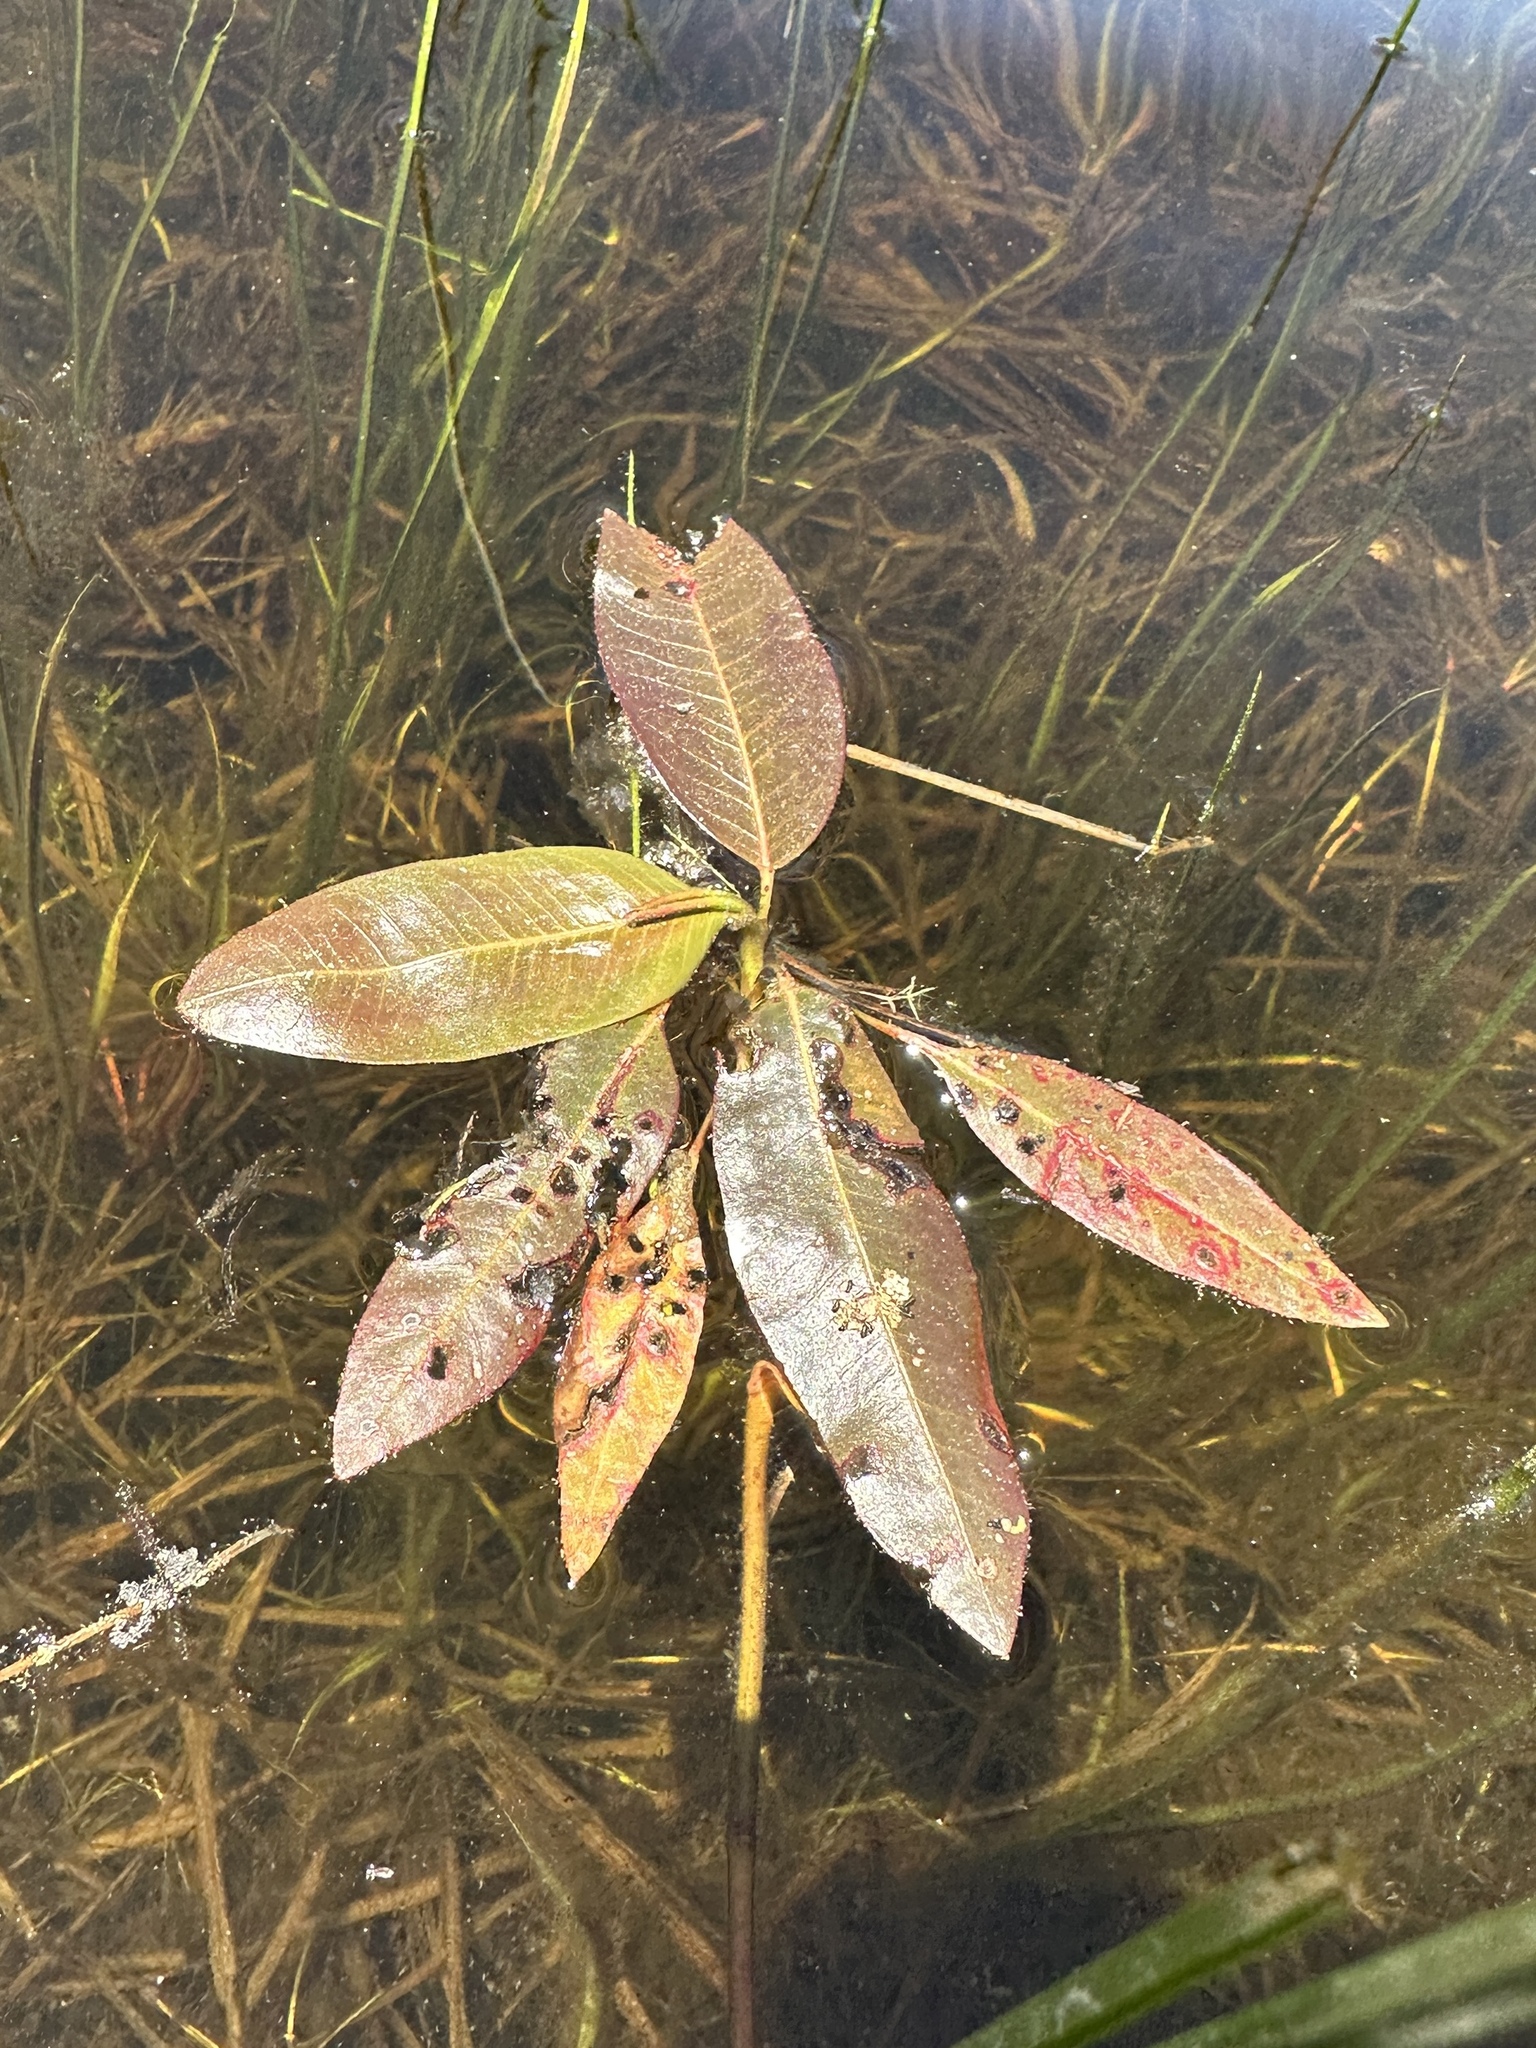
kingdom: Plantae
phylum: Tracheophyta
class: Magnoliopsida
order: Caryophyllales
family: Polygonaceae
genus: Persicaria
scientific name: Persicaria amphibia
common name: Amphibious bistort
